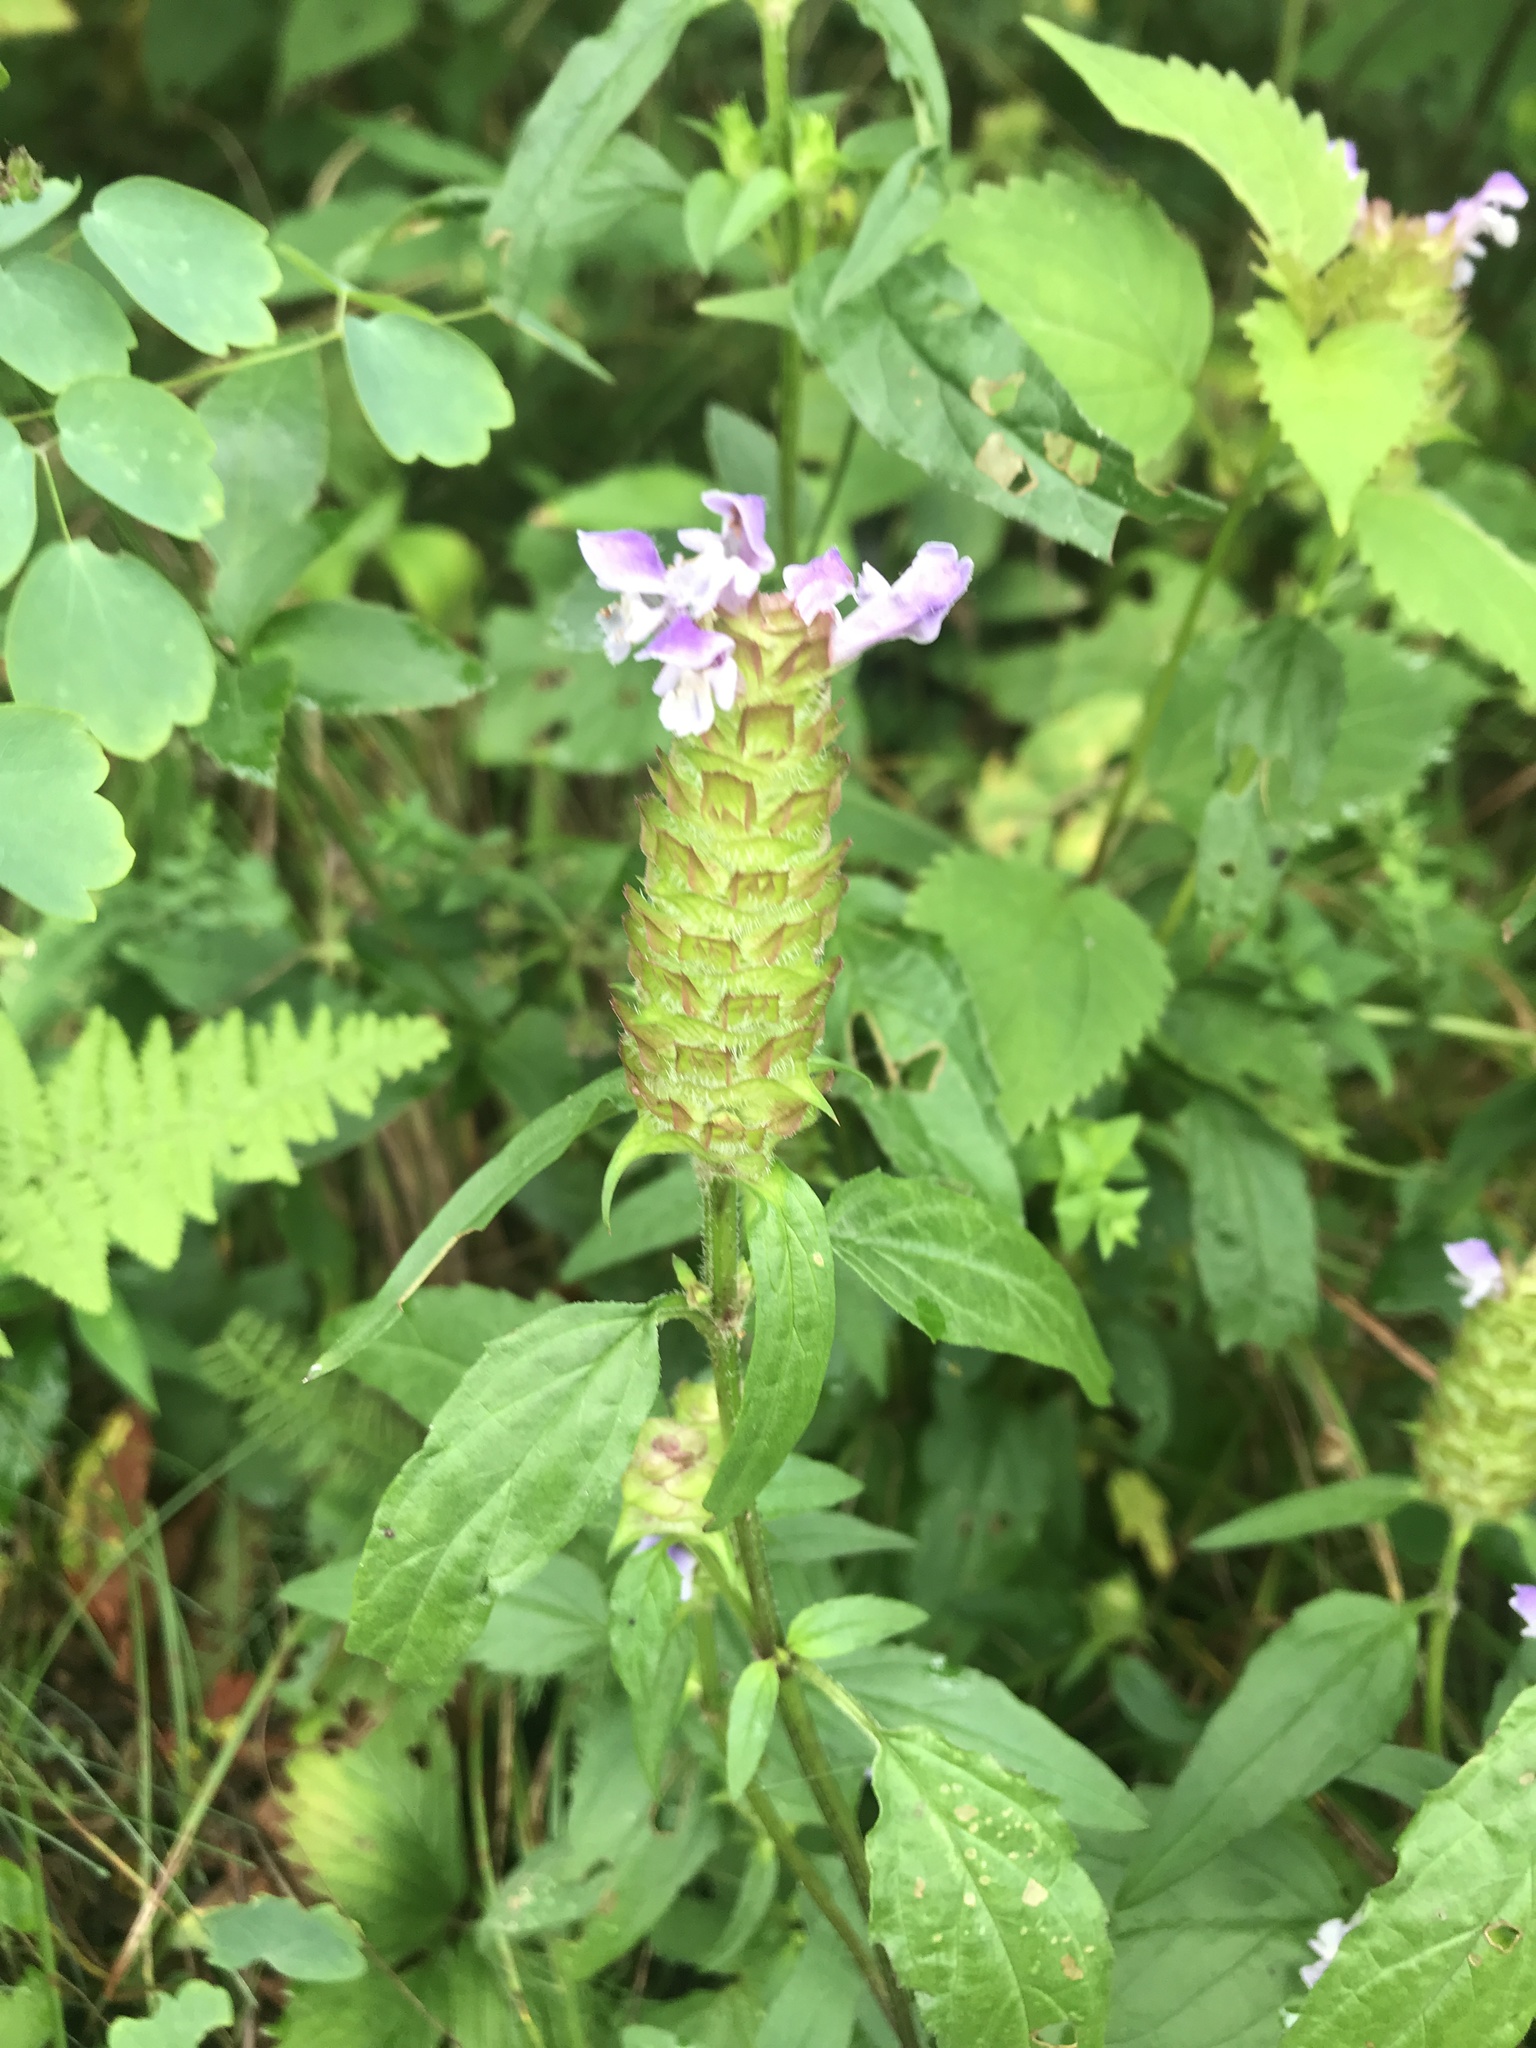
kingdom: Plantae
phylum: Tracheophyta
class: Magnoliopsida
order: Lamiales
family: Lamiaceae
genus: Prunella
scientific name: Prunella vulgaris
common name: Heal-all
